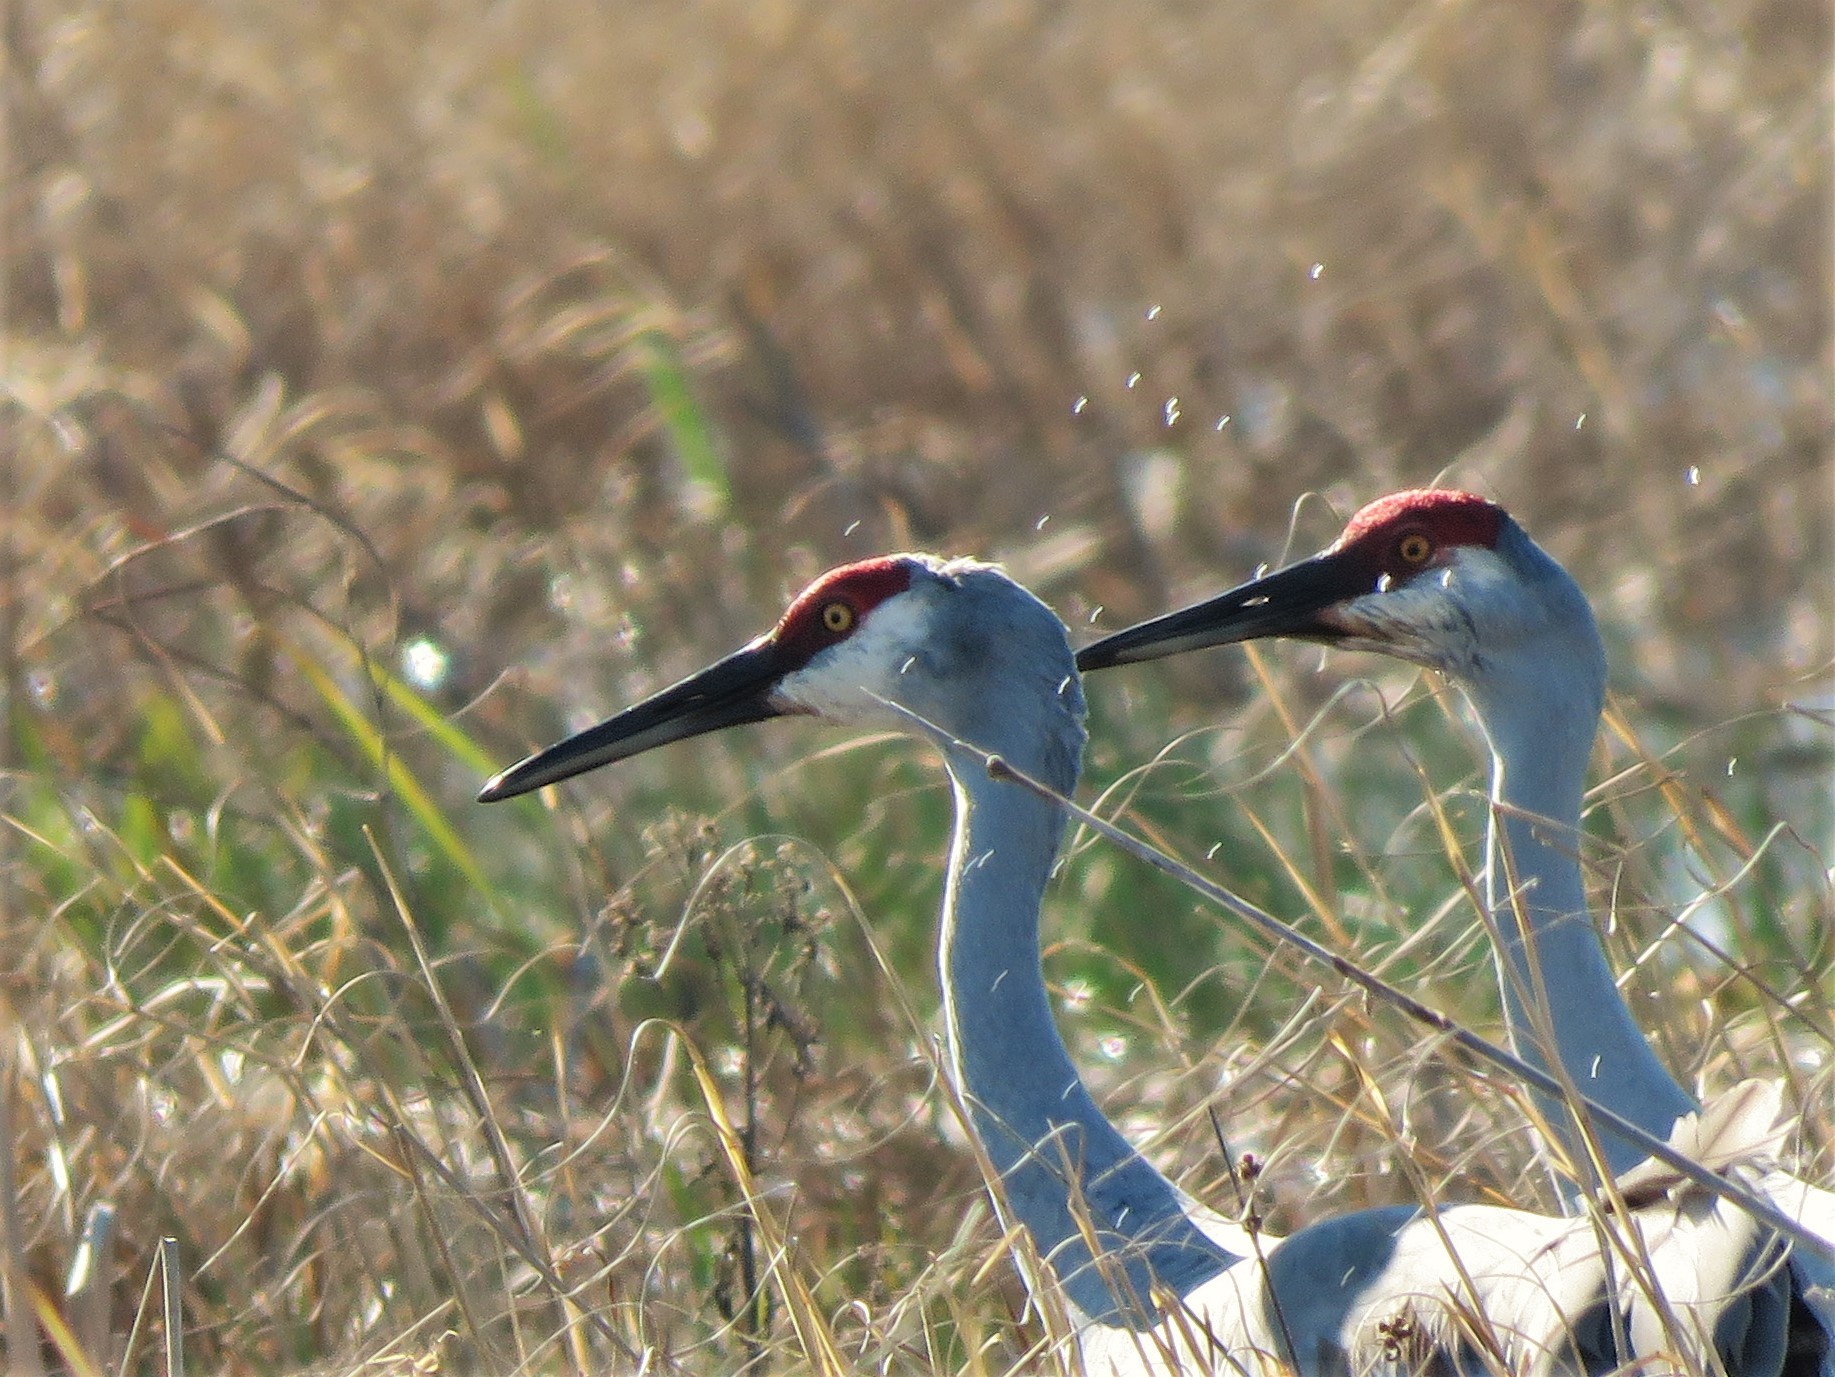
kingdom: Animalia
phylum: Chordata
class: Aves
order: Gruiformes
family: Gruidae
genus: Grus
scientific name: Grus canadensis
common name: Sandhill crane
